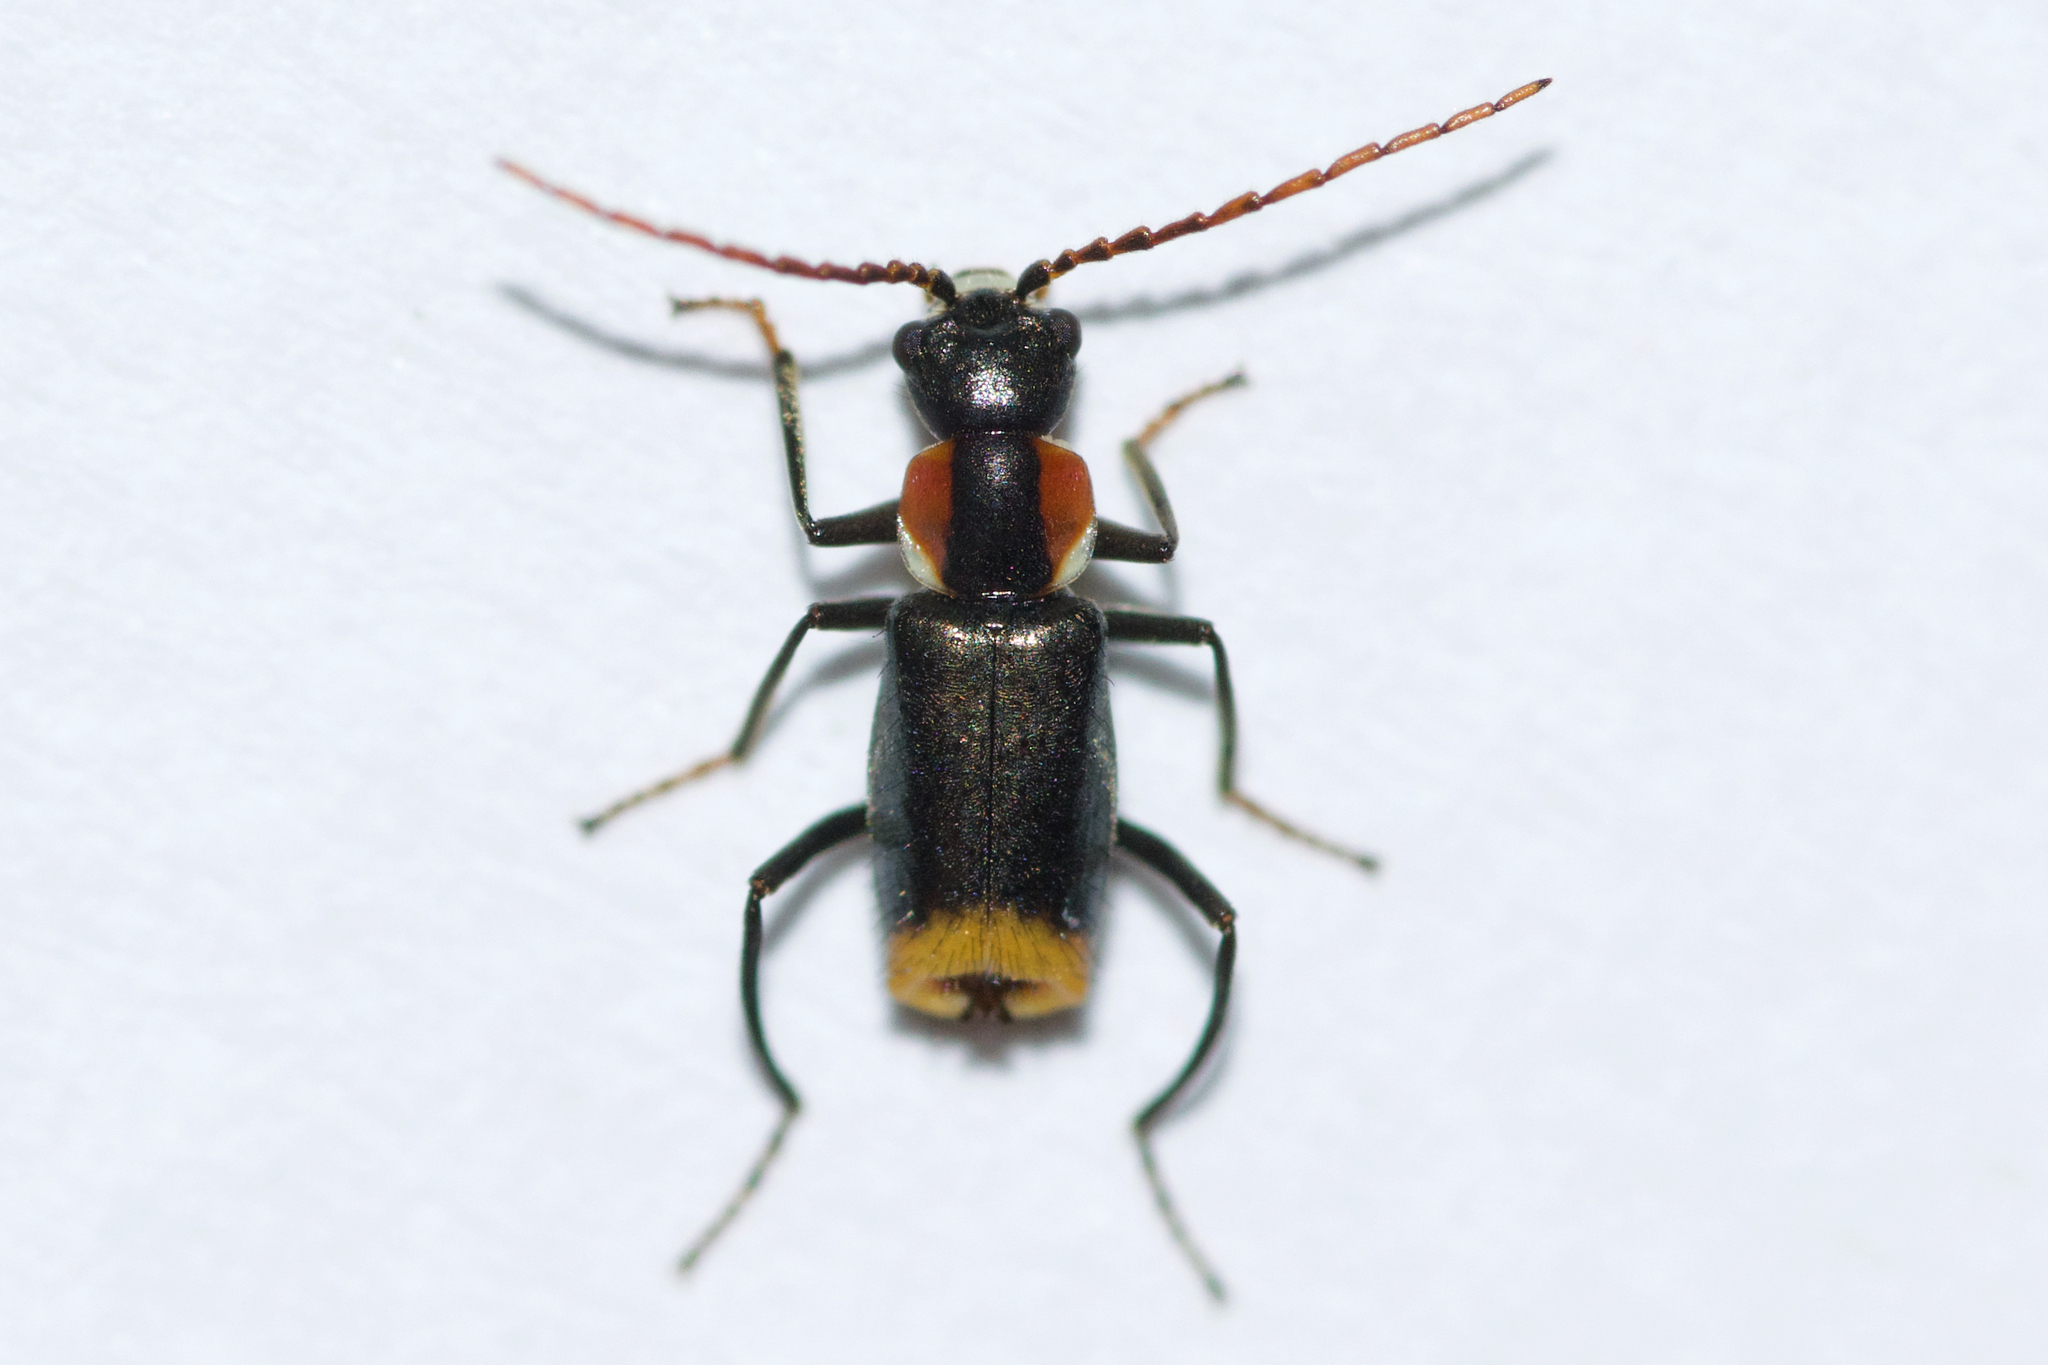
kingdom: Animalia
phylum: Arthropoda
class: Insecta
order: Coleoptera
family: Melyridae
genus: Axinotarsus
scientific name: Axinotarsus pulicarius
